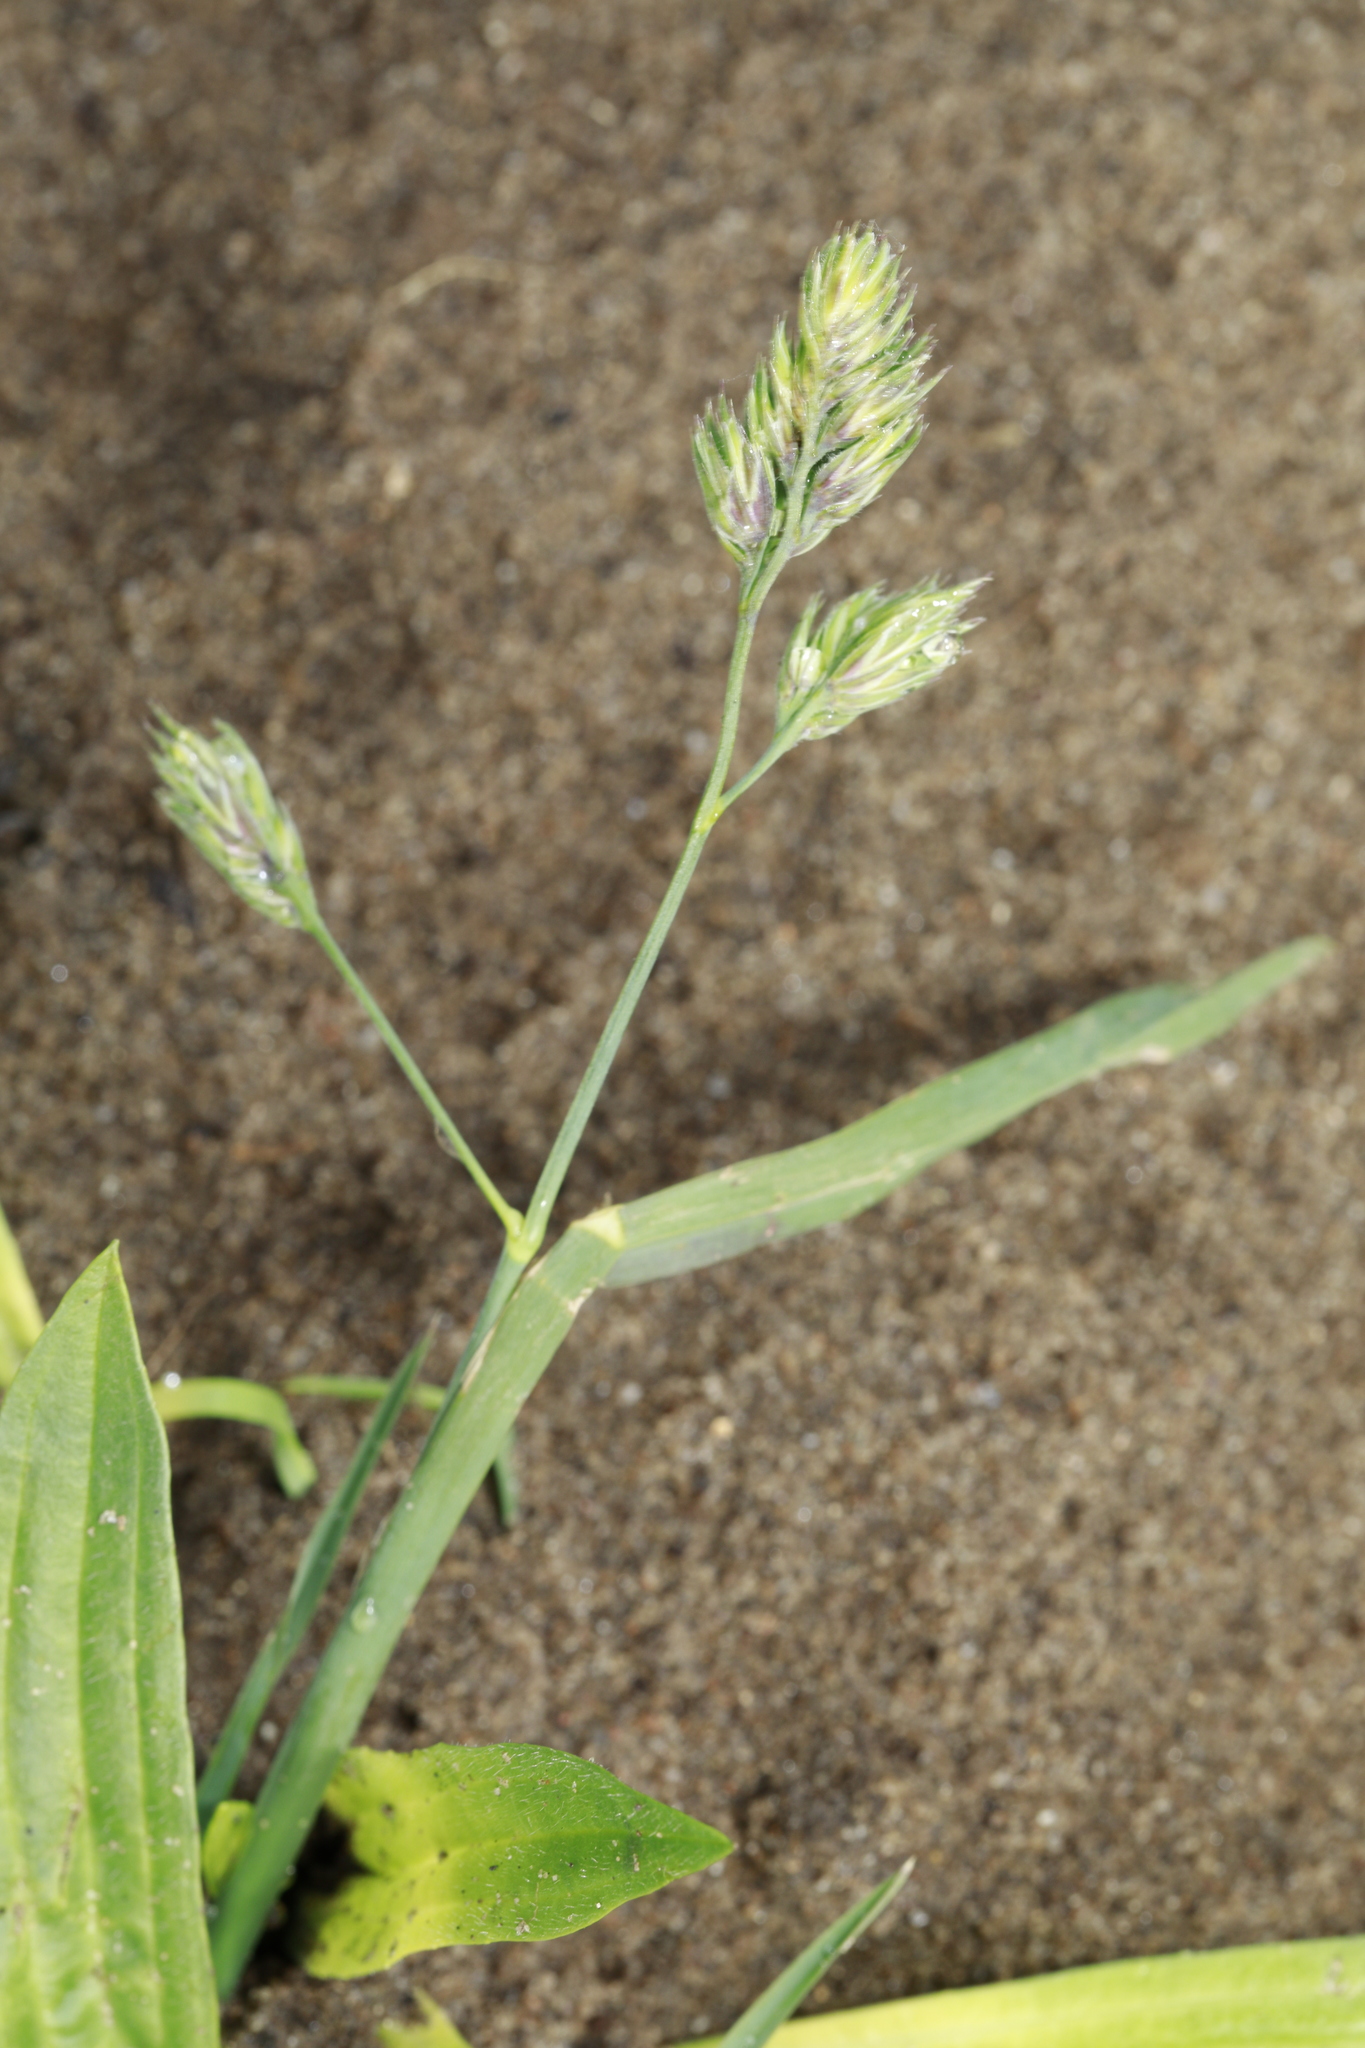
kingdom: Plantae
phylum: Tracheophyta
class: Liliopsida
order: Poales
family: Poaceae
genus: Dactylis
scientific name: Dactylis glomerata
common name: Orchardgrass
